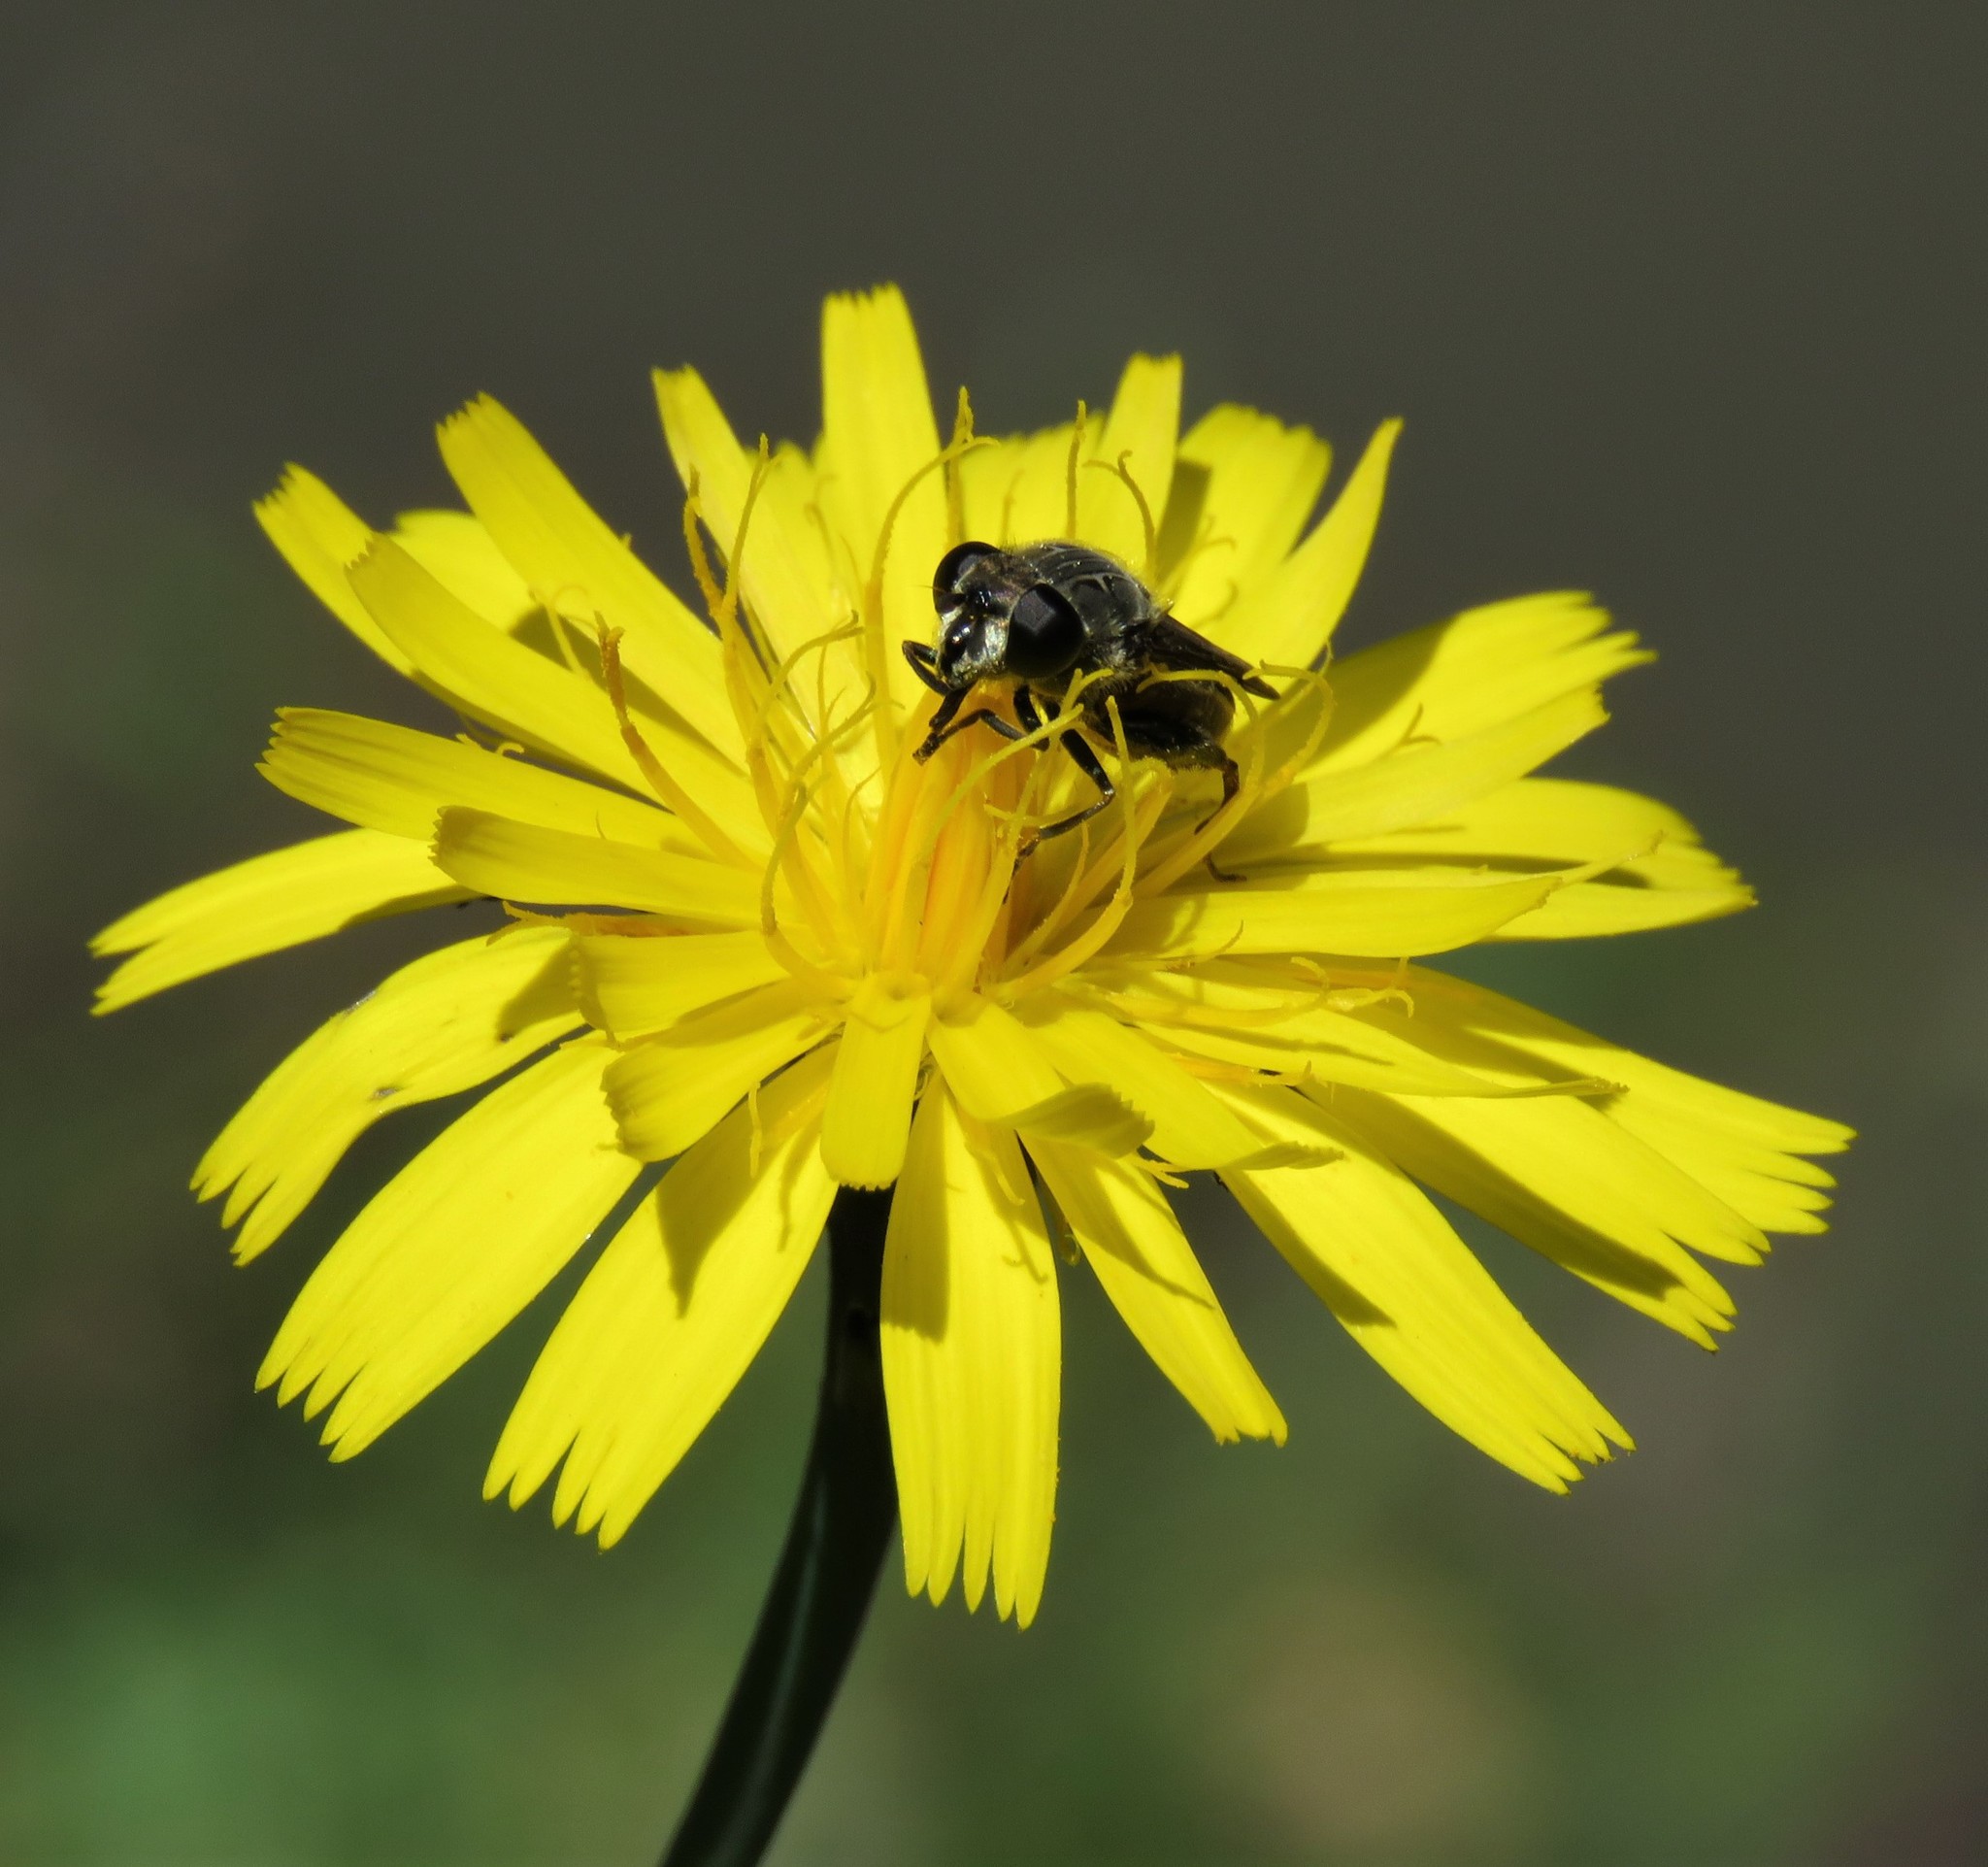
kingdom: Plantae
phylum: Tracheophyta
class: Magnoliopsida
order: Asterales
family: Asteraceae
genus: Hypochaeris
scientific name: Hypochaeris radicata
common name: Flatweed
